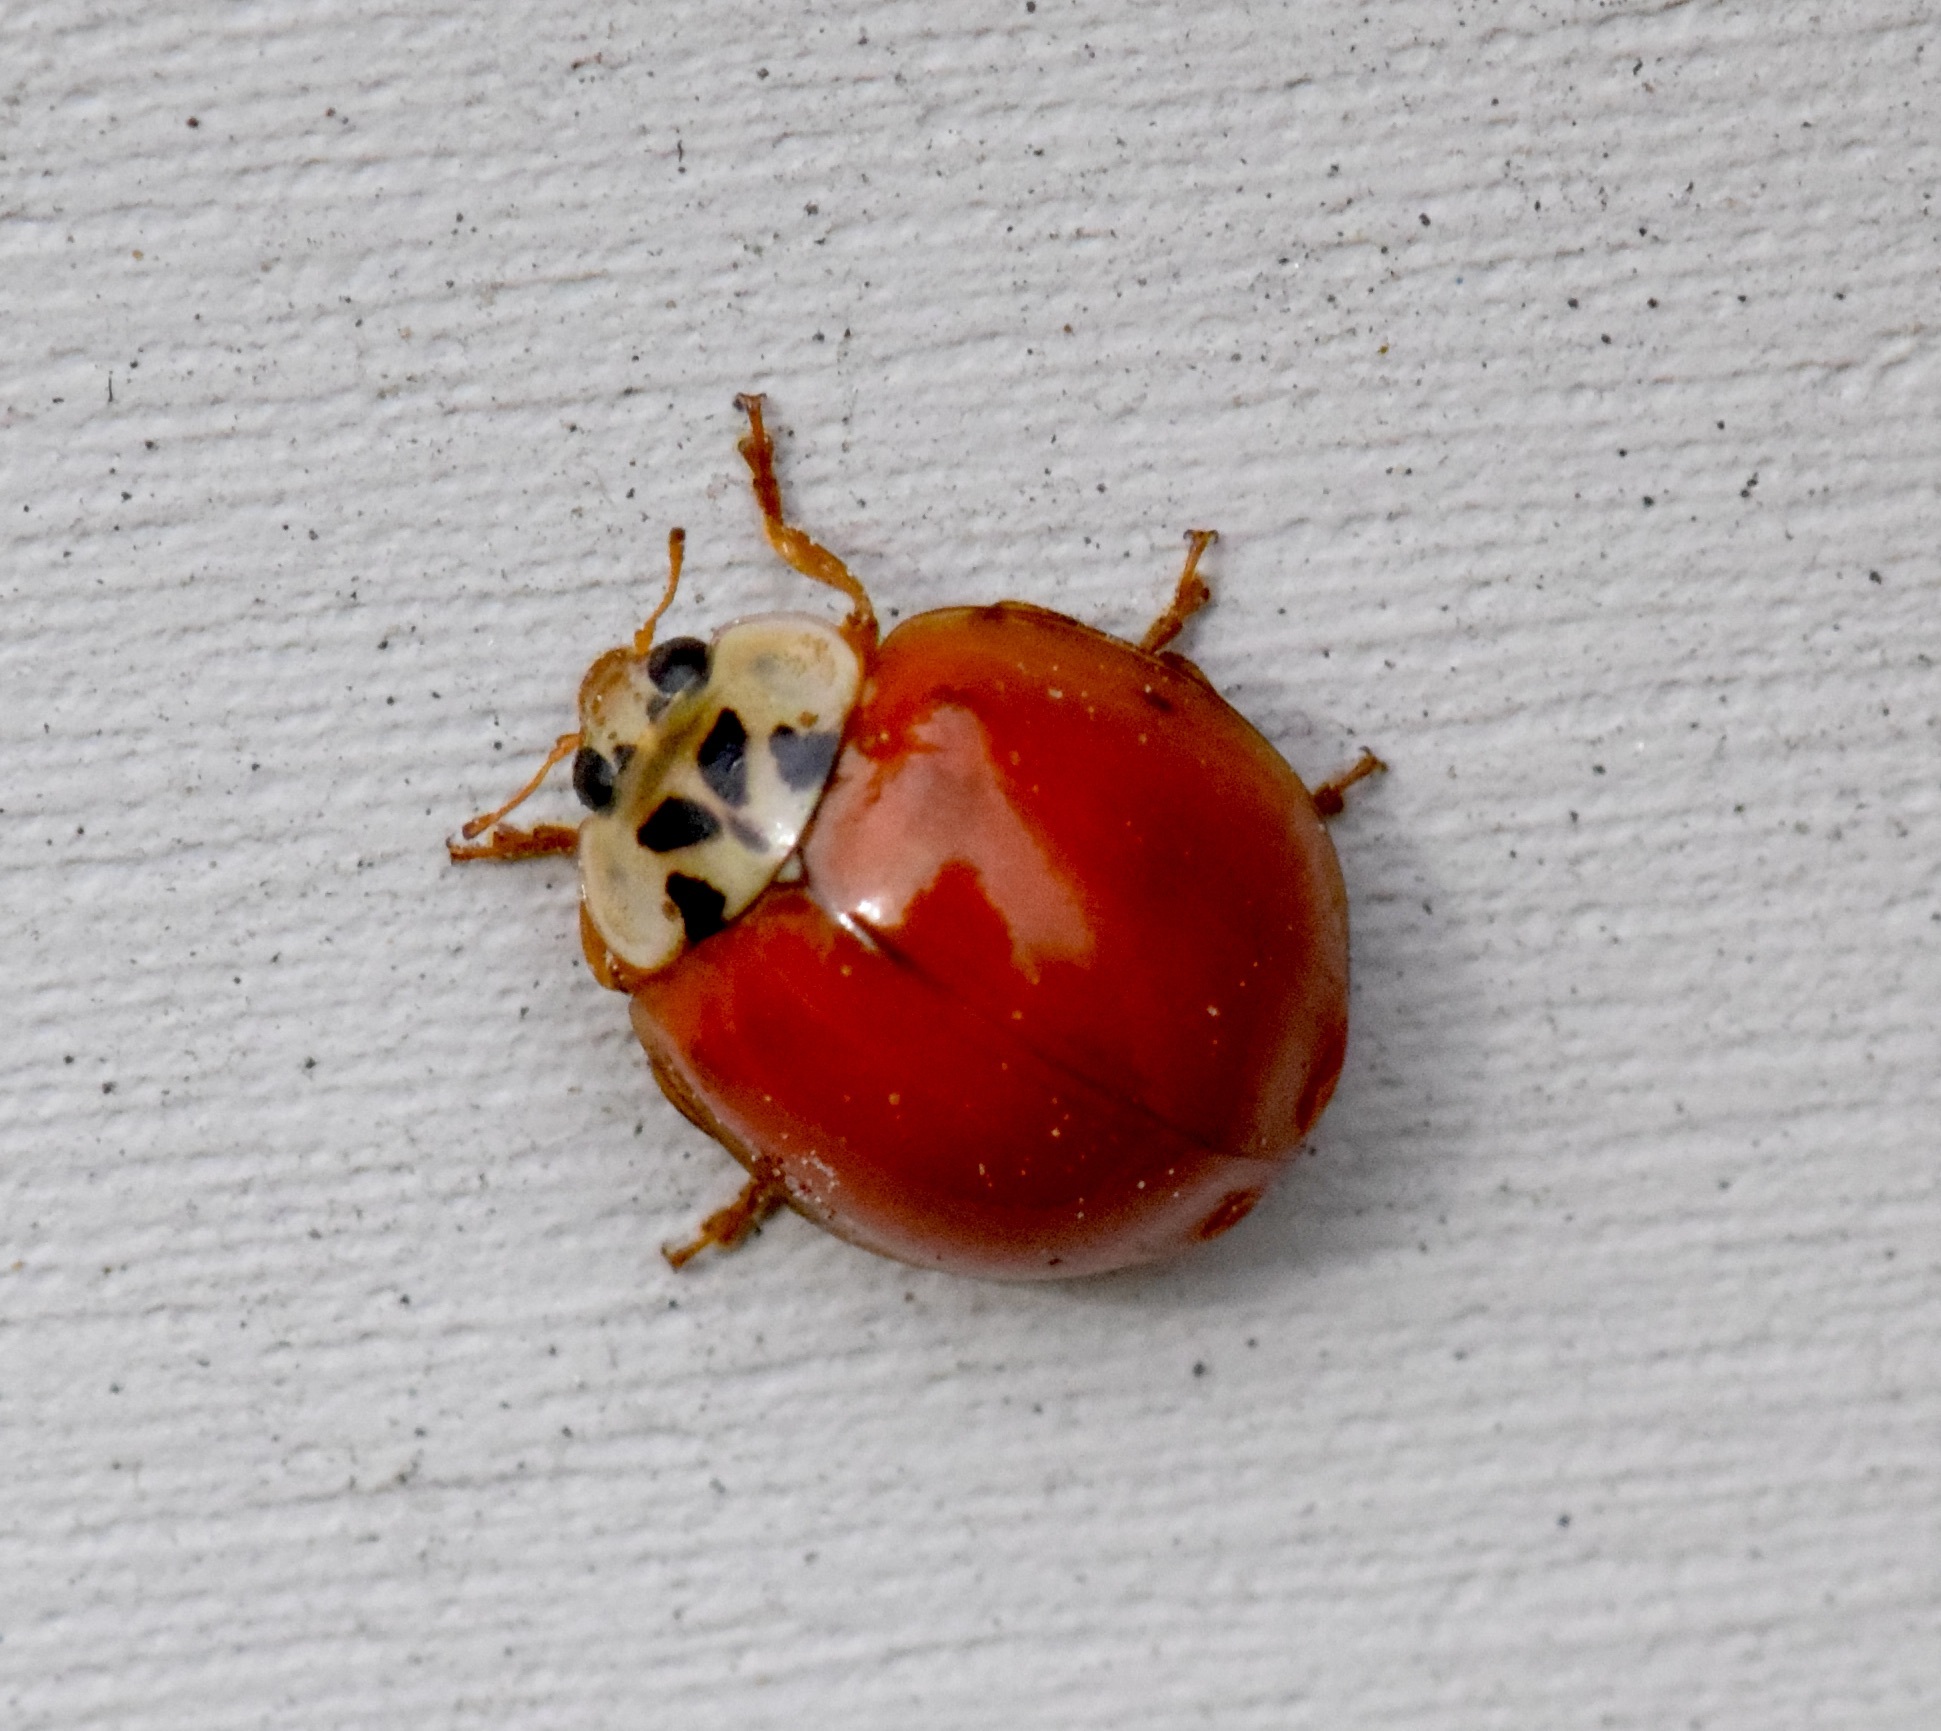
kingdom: Animalia
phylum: Arthropoda
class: Insecta
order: Coleoptera
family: Coccinellidae
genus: Harmonia
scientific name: Harmonia axyridis
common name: Harlequin ladybird
